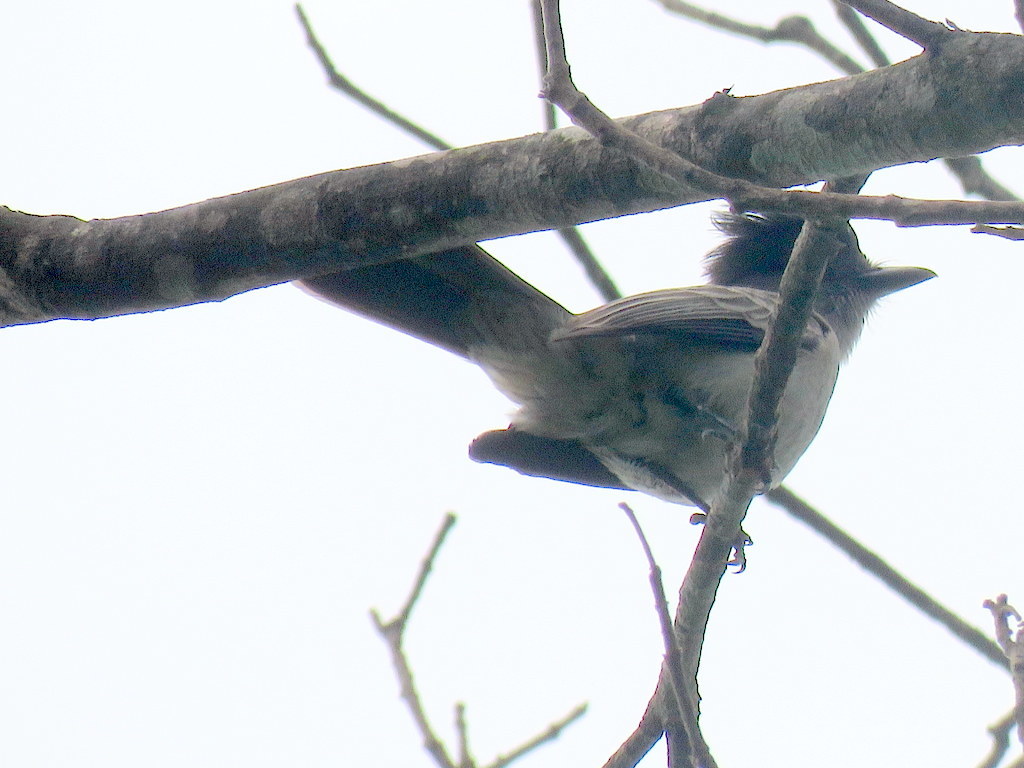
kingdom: Animalia
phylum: Chordata
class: Aves
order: Passeriformes
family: Tyrannidae
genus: Sirystes
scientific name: Sirystes sibilator
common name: Sirystes
